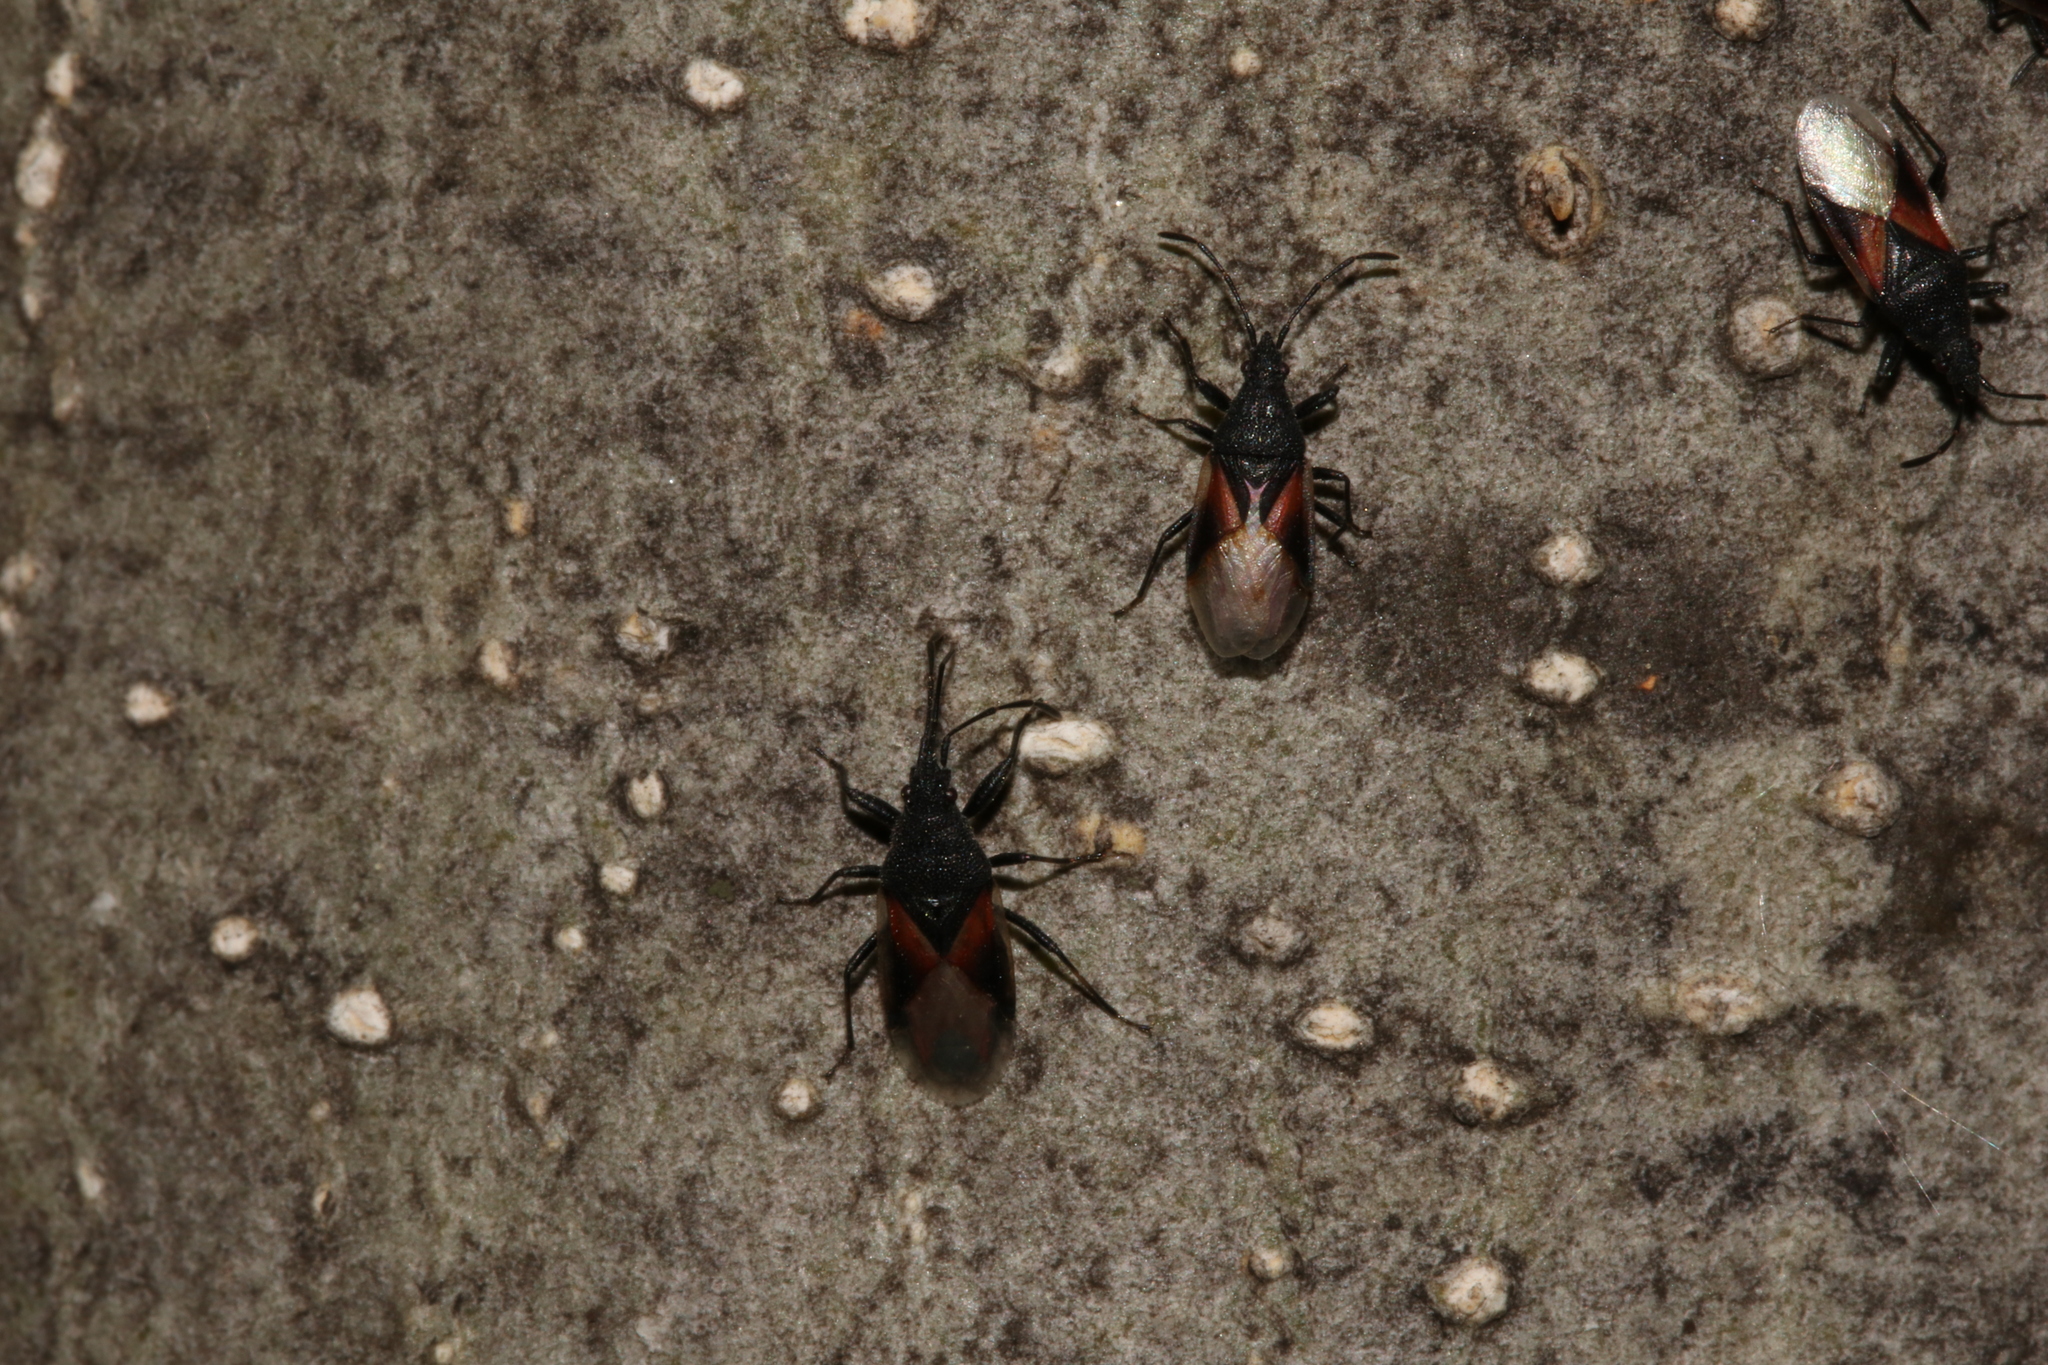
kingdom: Animalia
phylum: Arthropoda
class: Insecta
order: Hemiptera
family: Oxycarenidae
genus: Oxycarenus
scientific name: Oxycarenus lavaterae
